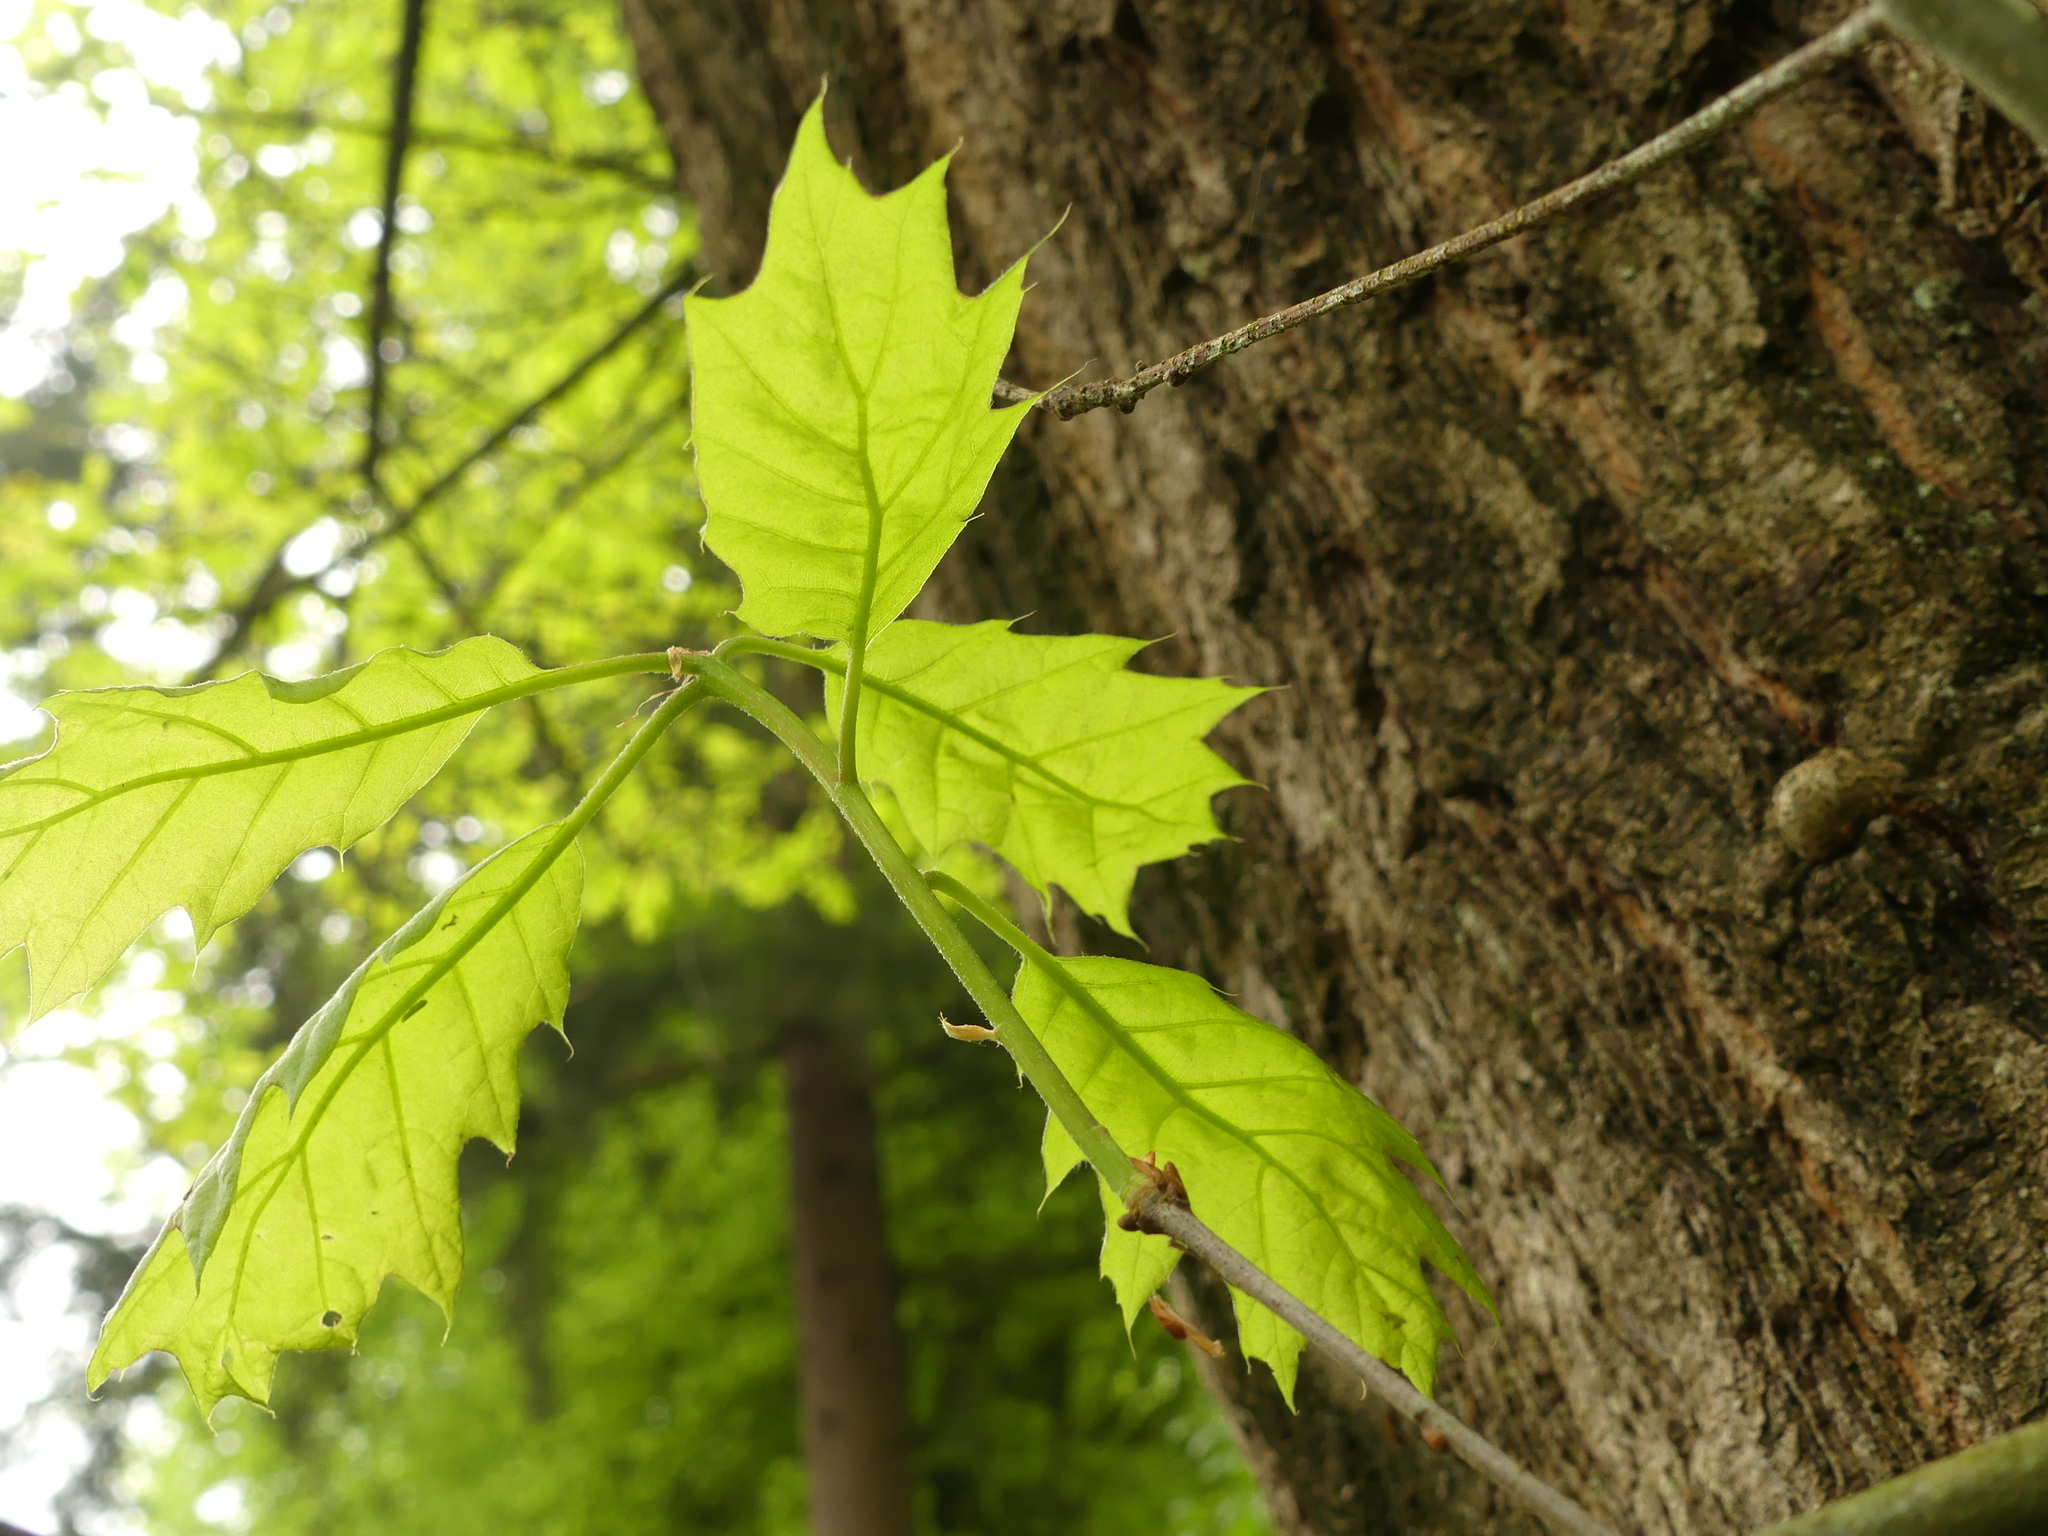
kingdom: Plantae
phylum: Tracheophyta
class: Magnoliopsida
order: Fagales
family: Fagaceae
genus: Quercus
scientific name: Quercus rubra
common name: Red oak
